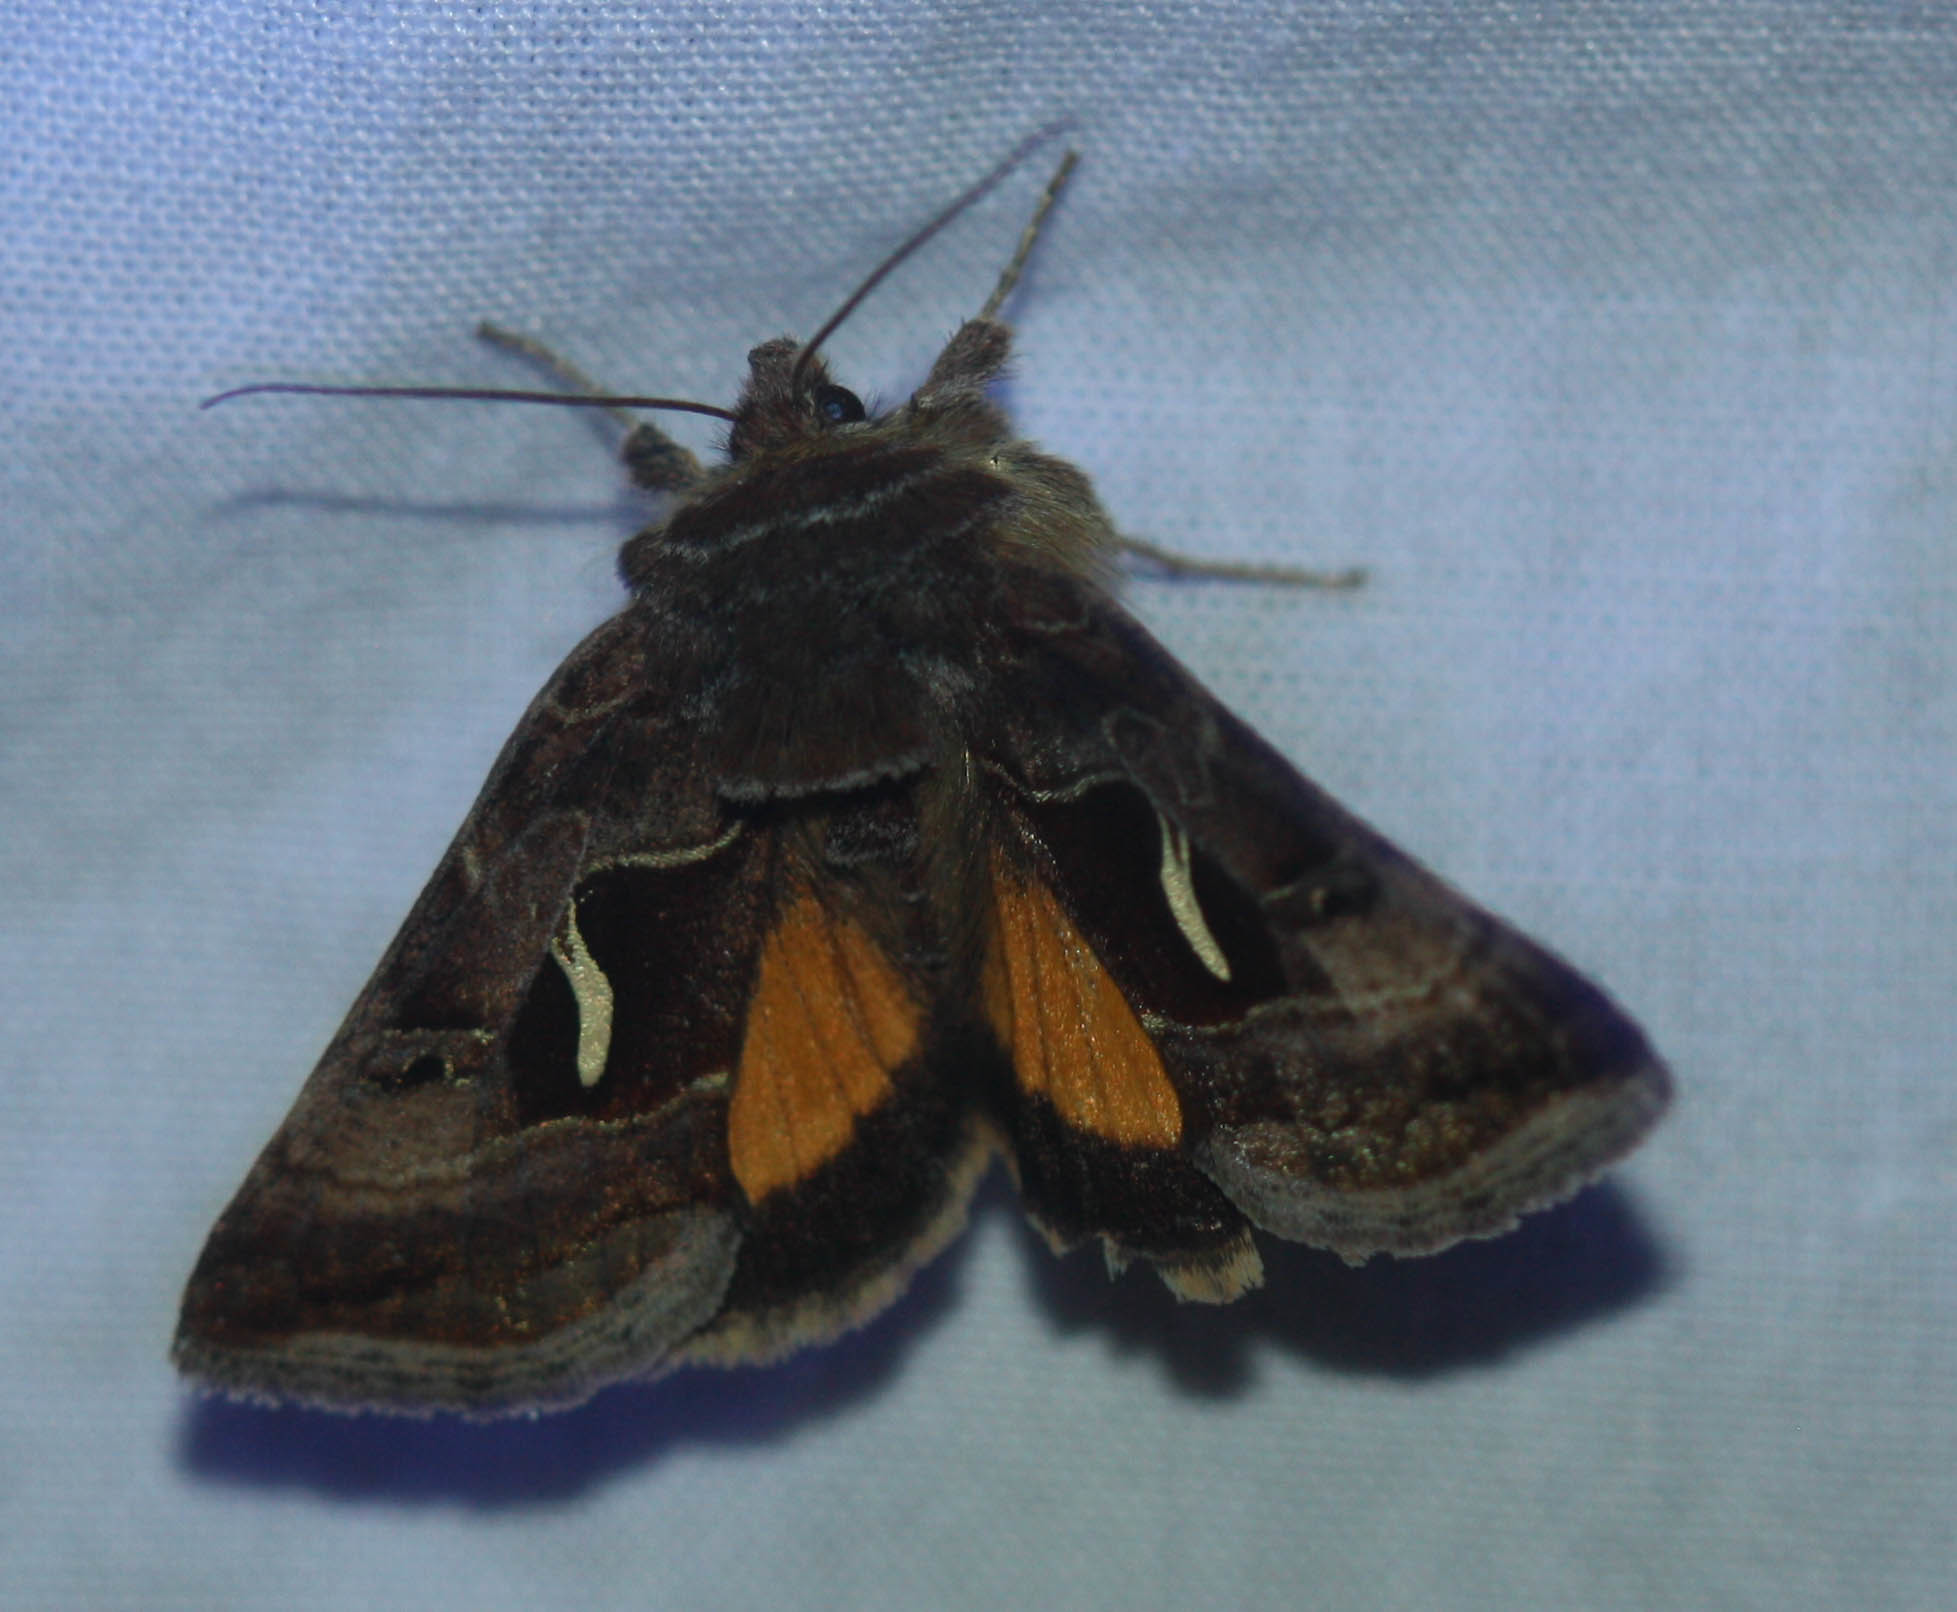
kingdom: Animalia
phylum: Arthropoda
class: Insecta
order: Lepidoptera
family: Noctuidae
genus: Syngrapha
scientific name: Syngrapha ignea
